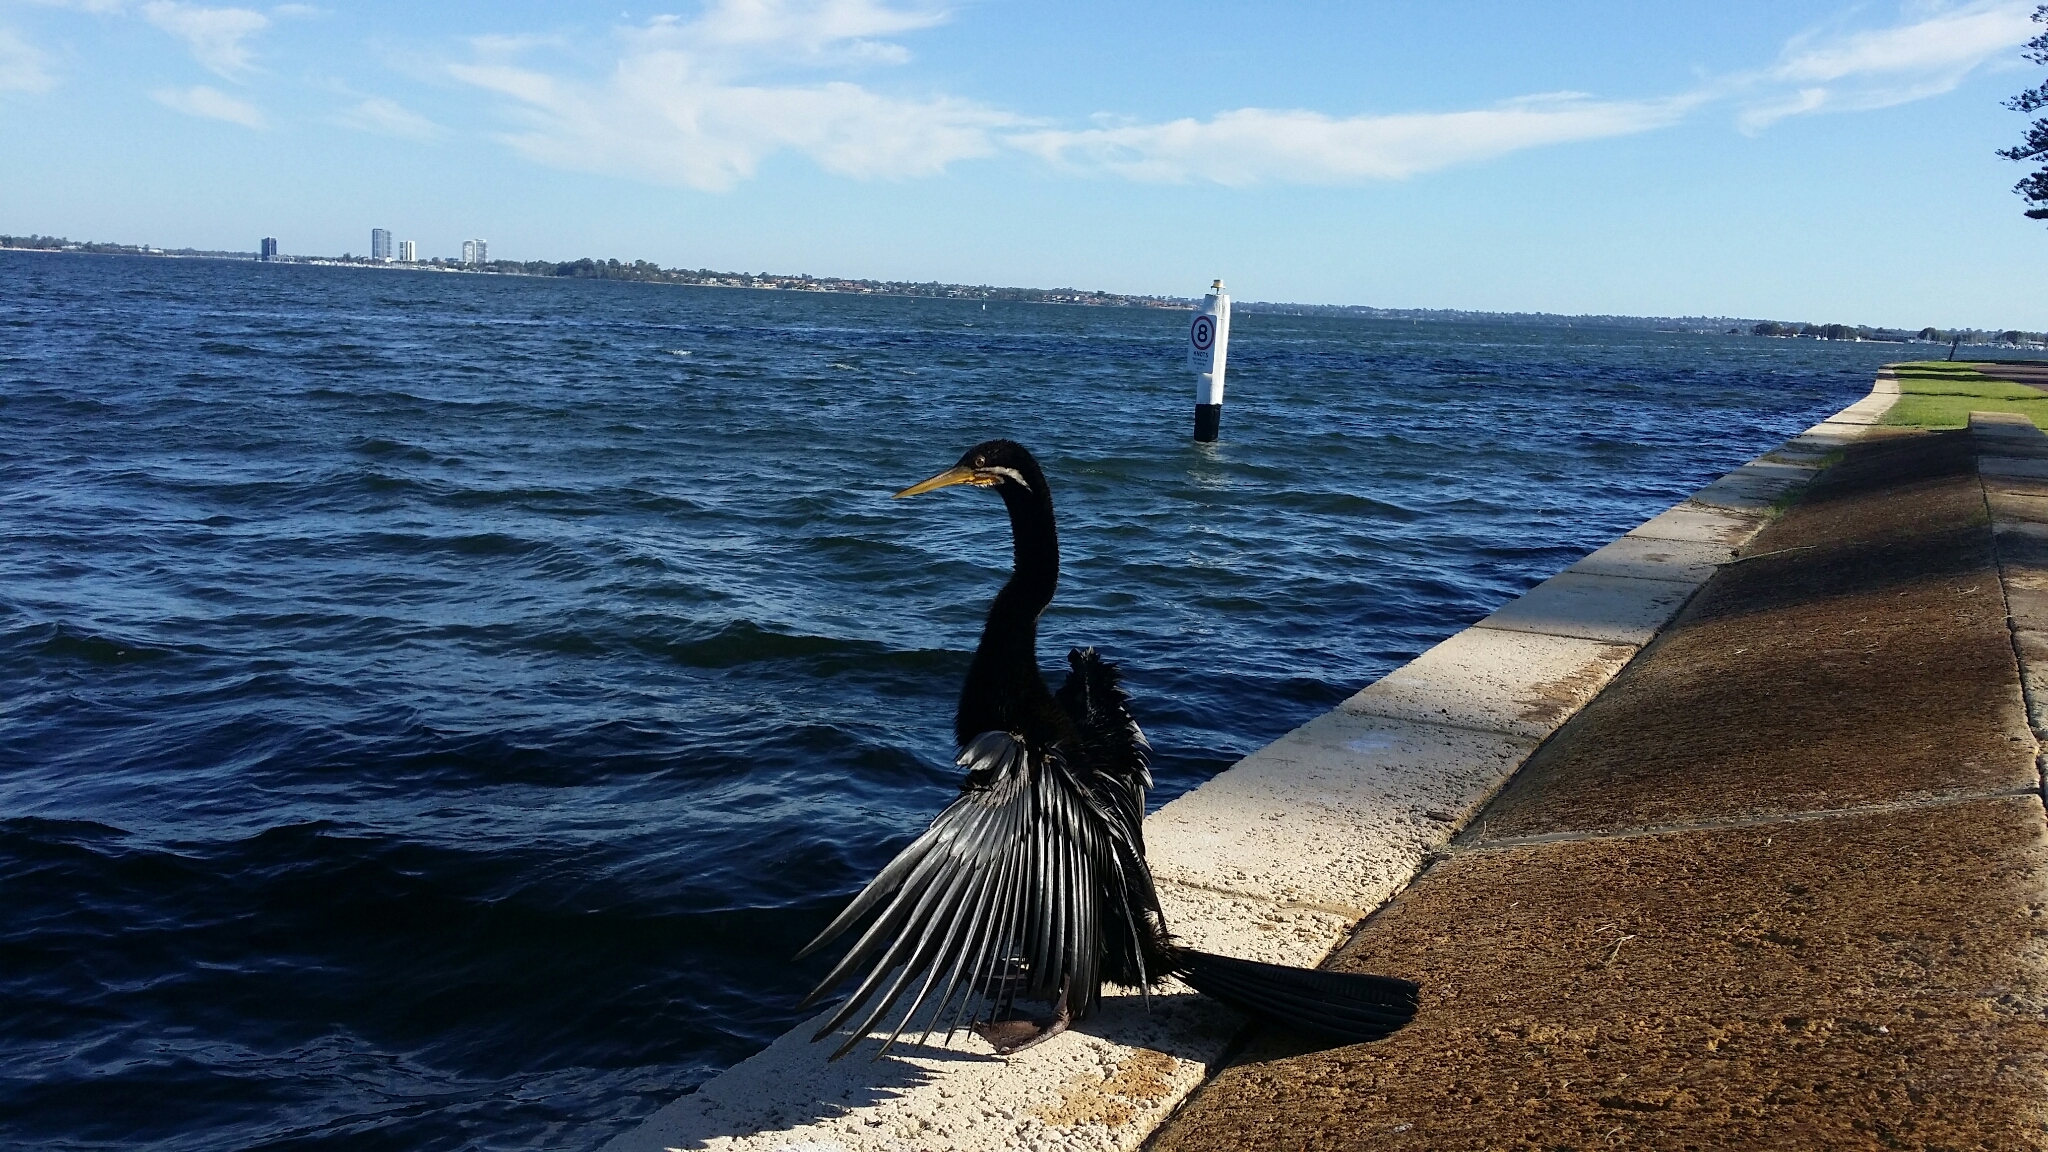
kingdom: Animalia
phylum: Chordata
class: Aves
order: Suliformes
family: Anhingidae
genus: Anhinga
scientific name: Anhinga novaehollandiae
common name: Australasian darter
